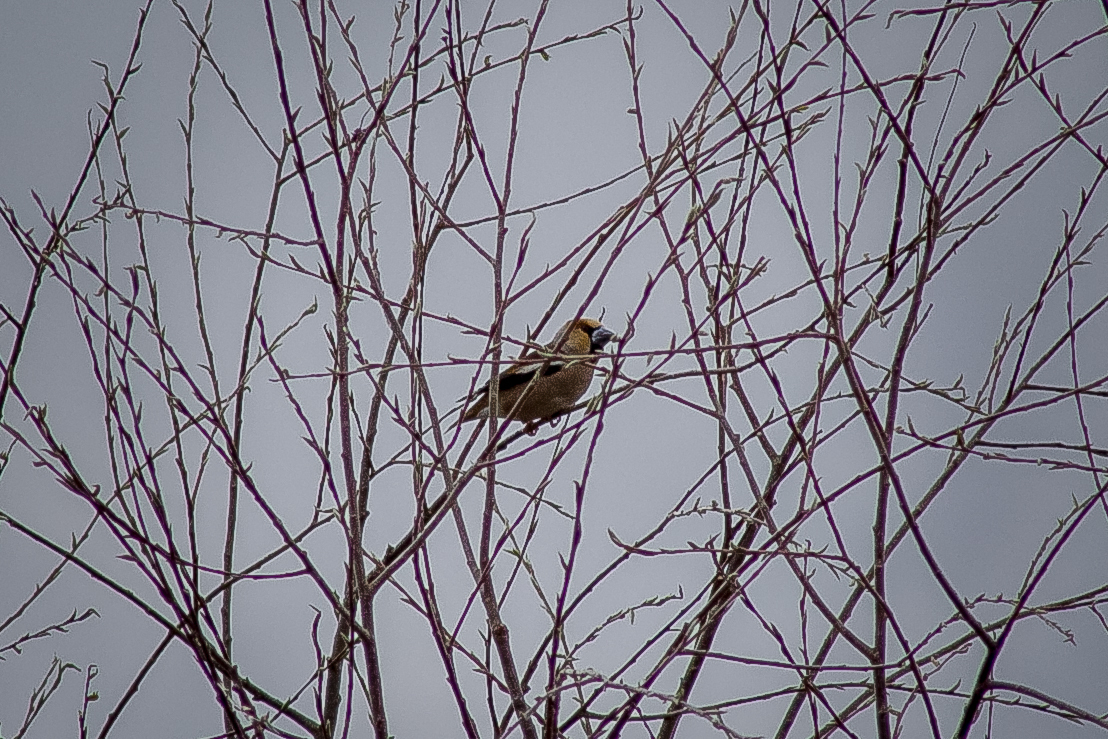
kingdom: Animalia
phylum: Chordata
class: Aves
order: Passeriformes
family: Fringillidae
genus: Coccothraustes
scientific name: Coccothraustes coccothraustes
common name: Hawfinch
